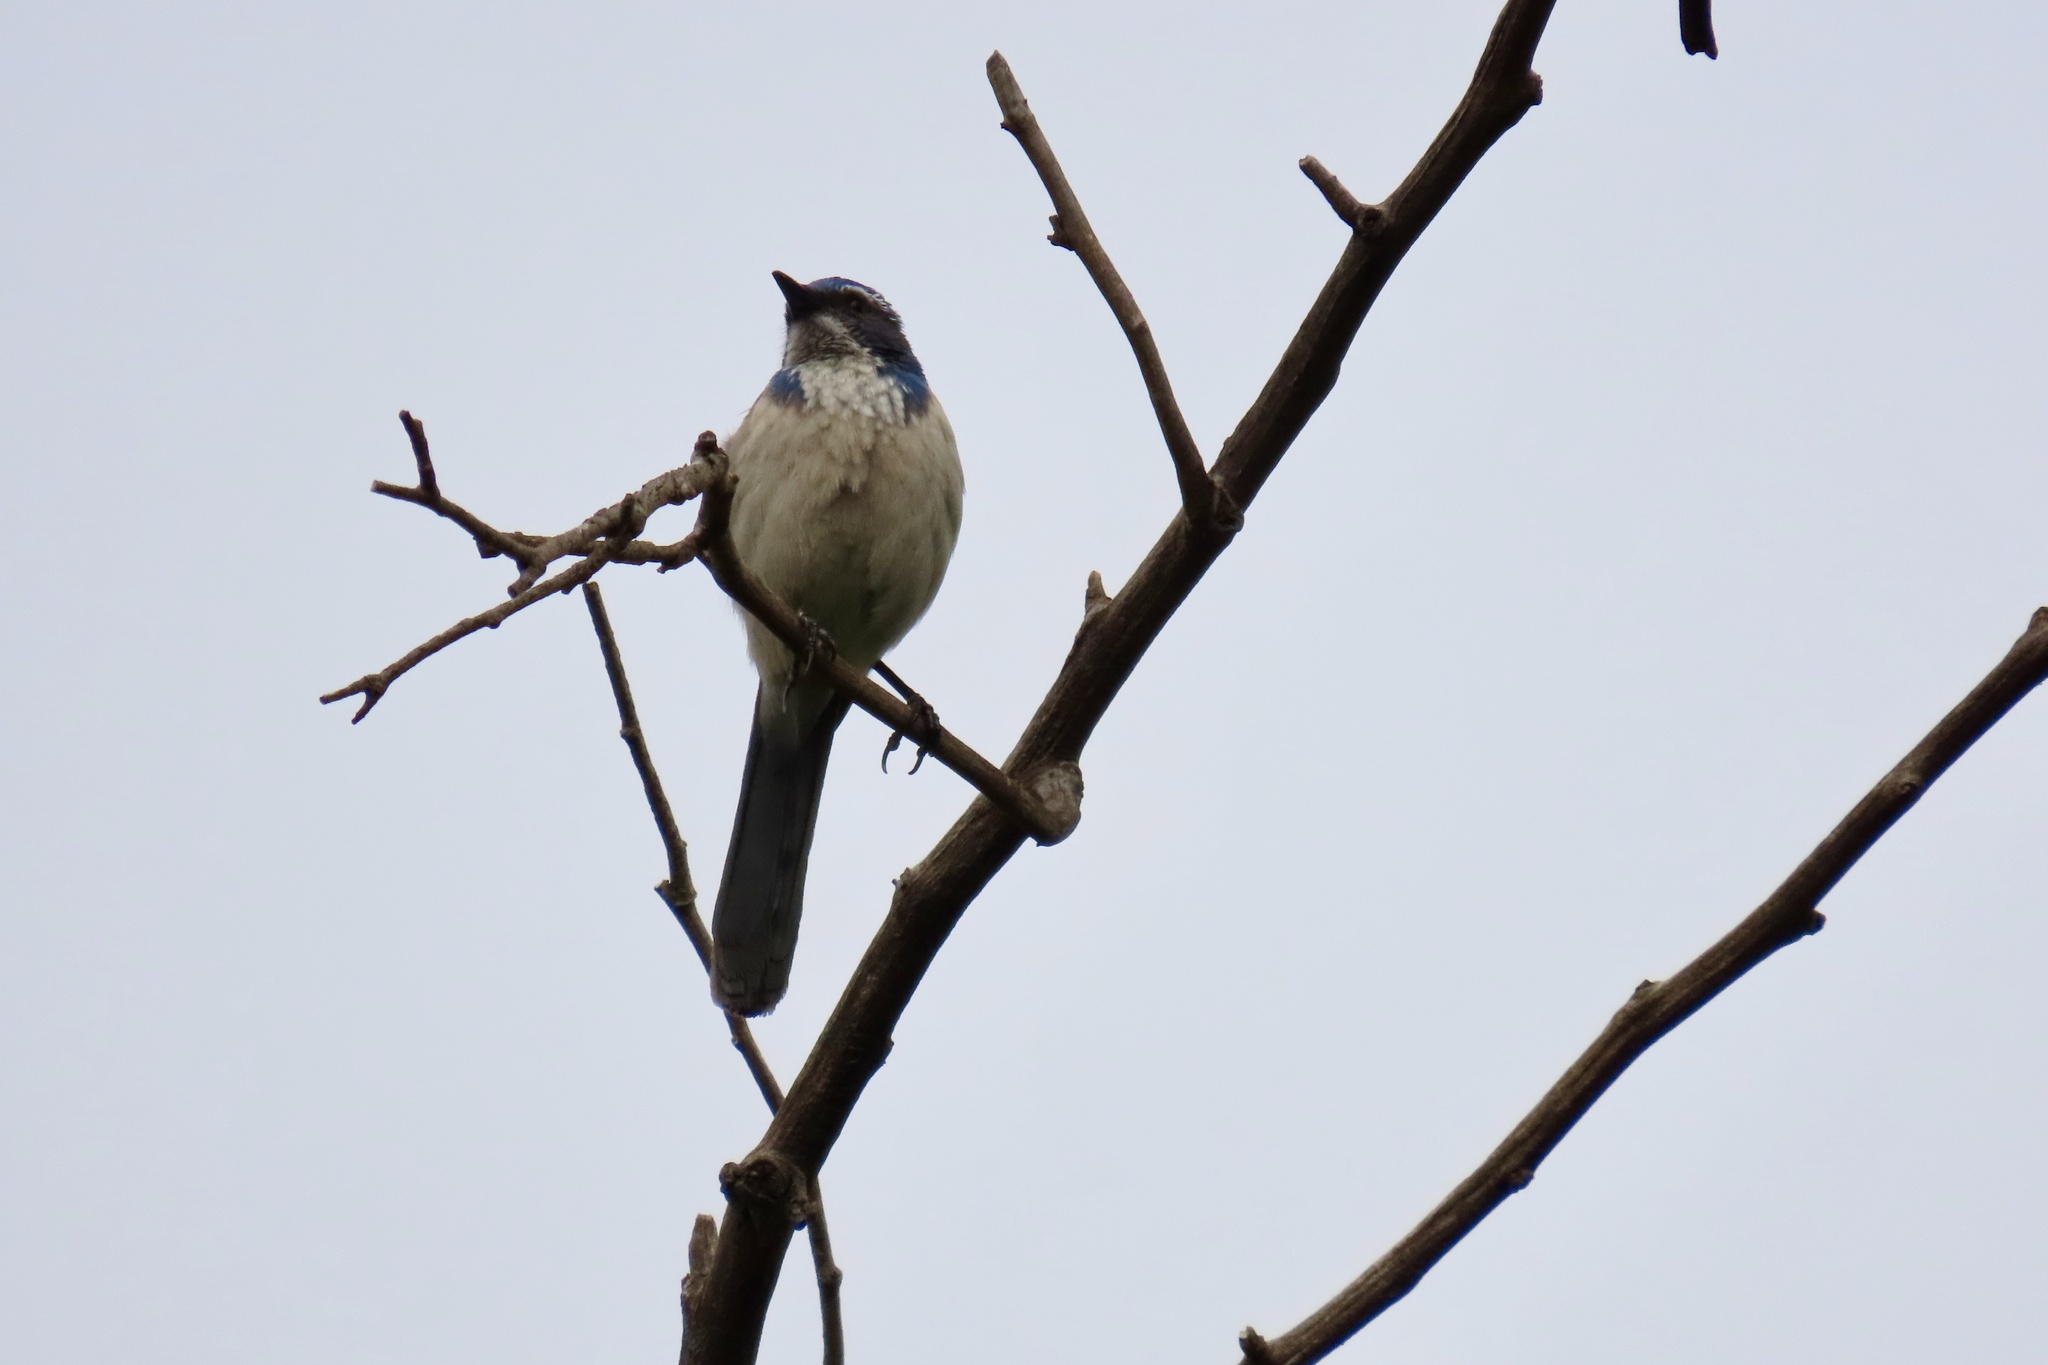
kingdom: Animalia
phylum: Chordata
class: Aves
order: Passeriformes
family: Corvidae
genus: Aphelocoma
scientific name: Aphelocoma californica
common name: California scrub-jay
